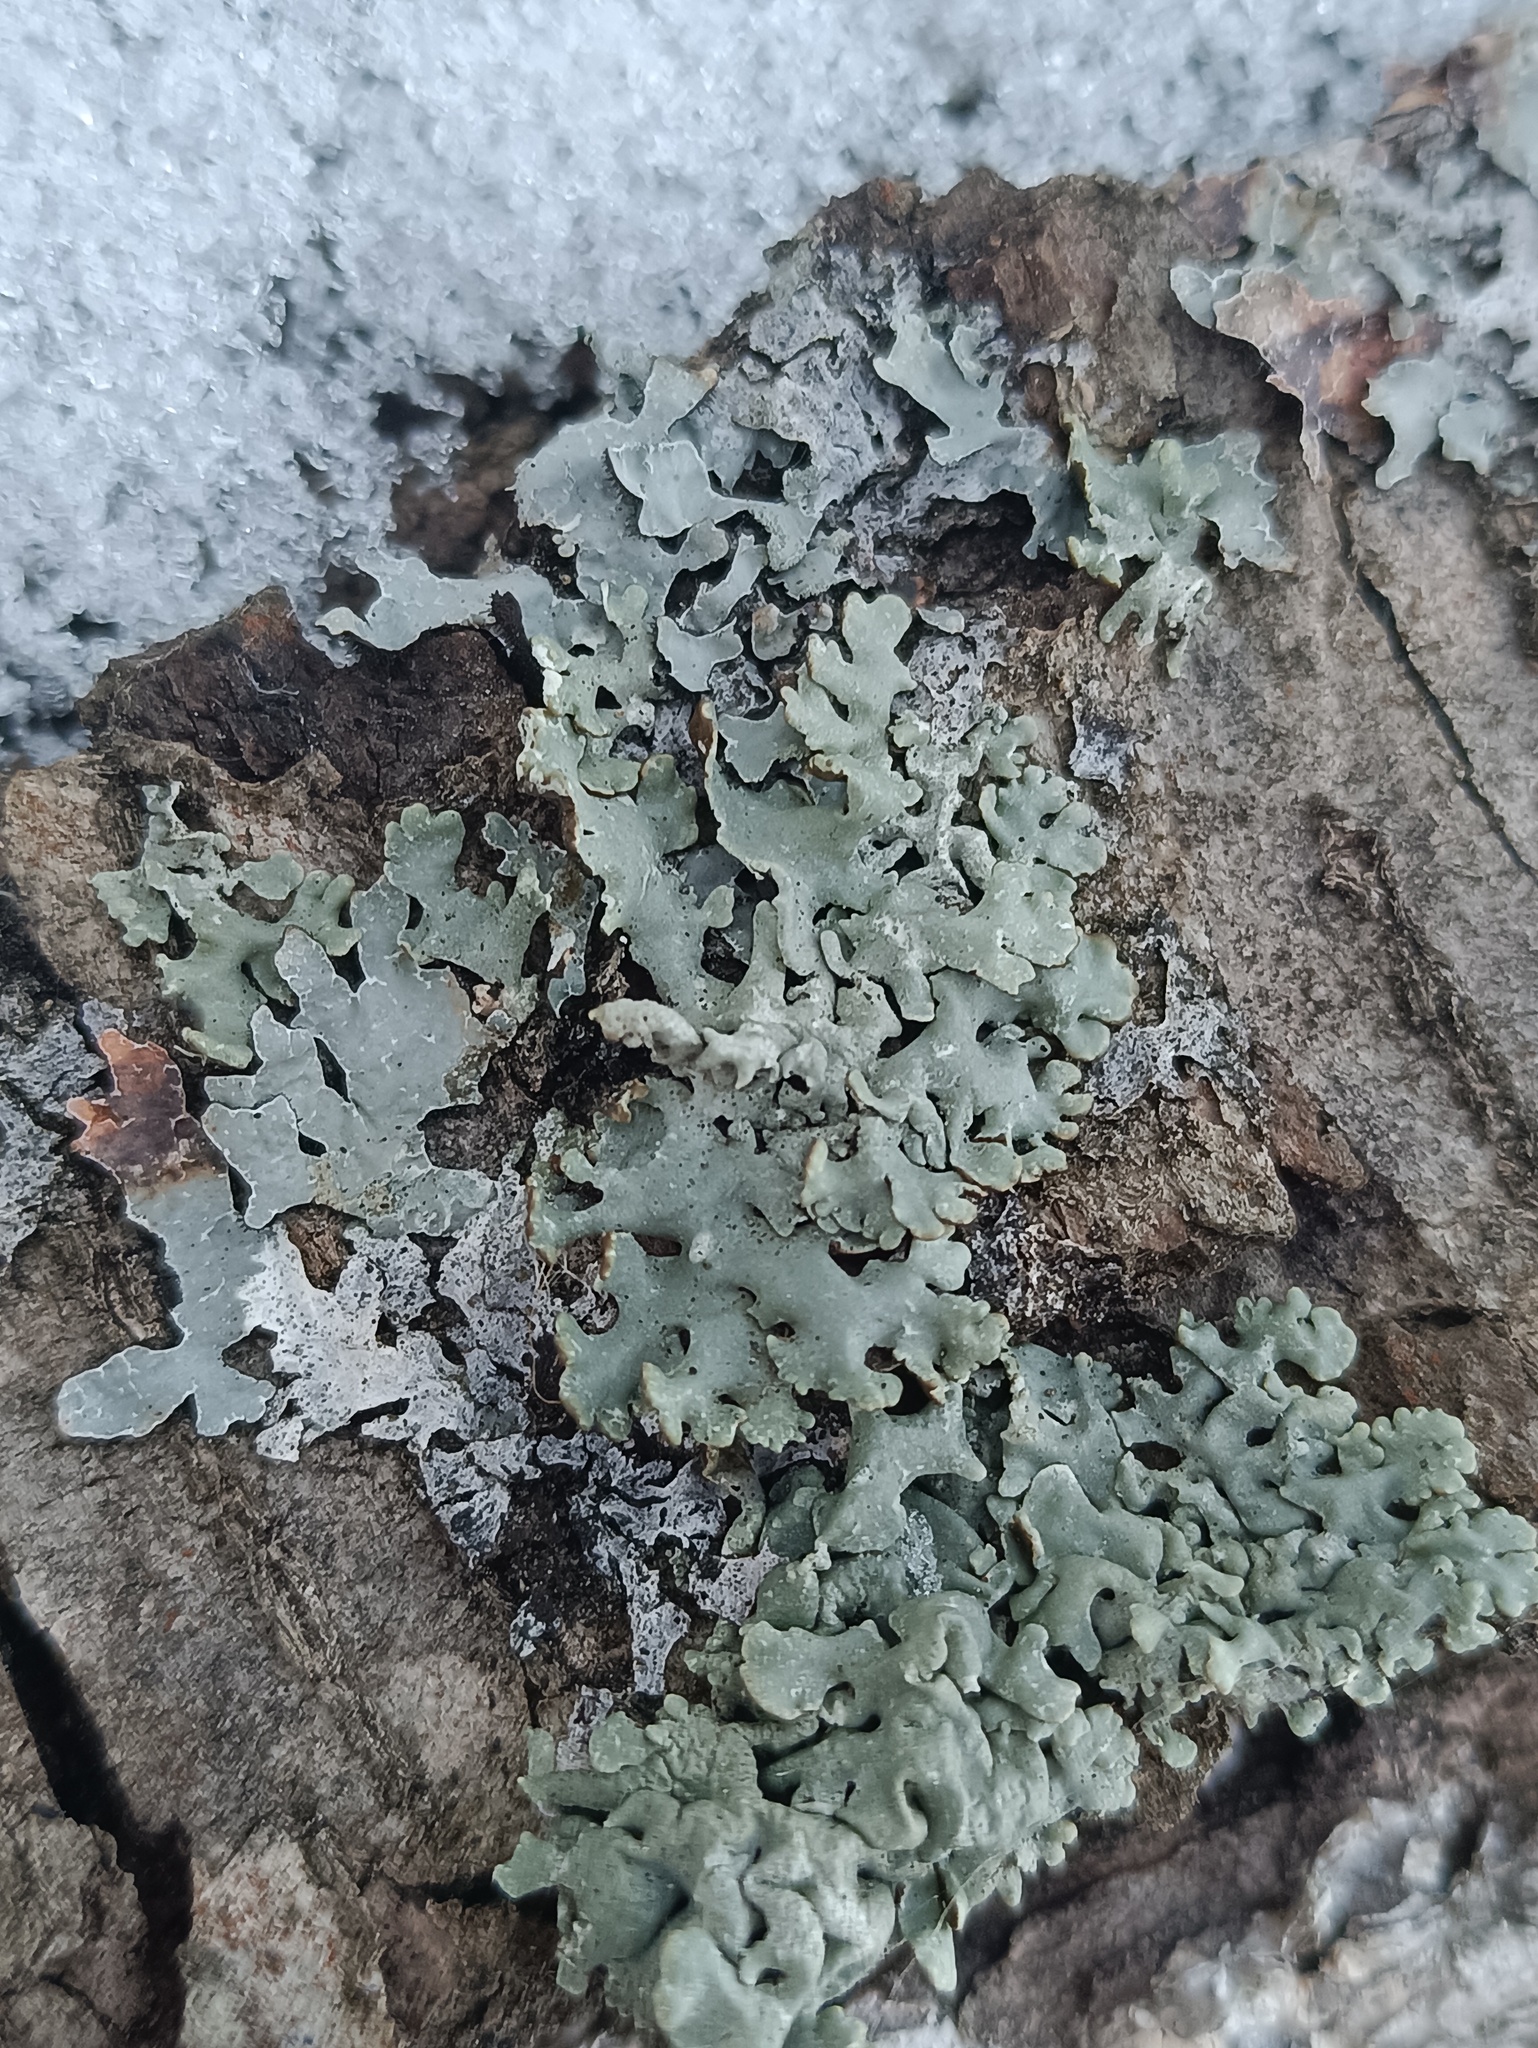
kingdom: Fungi
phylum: Ascomycota
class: Lecanoromycetes
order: Lecanorales
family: Parmeliaceae
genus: Hypogymnia
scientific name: Hypogymnia physodes
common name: Dark crottle
